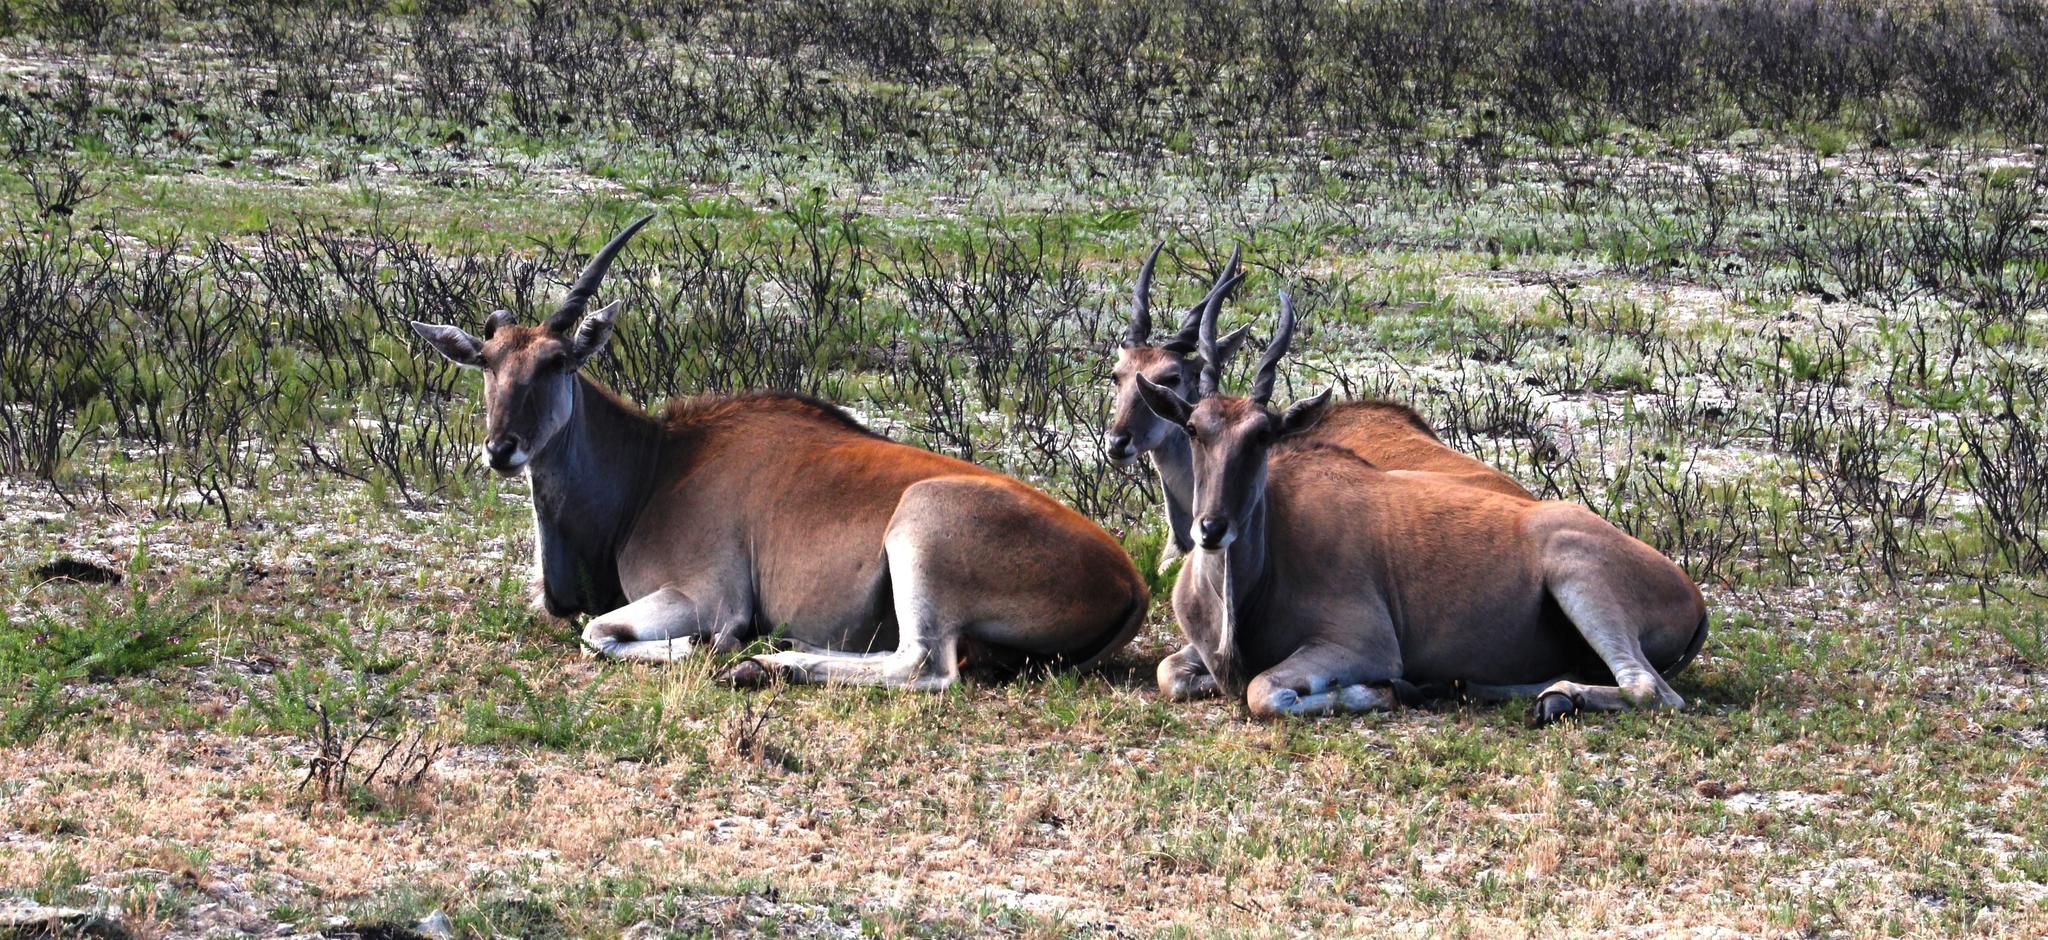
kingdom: Animalia
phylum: Chordata
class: Mammalia
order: Artiodactyla
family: Bovidae
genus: Taurotragus
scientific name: Taurotragus oryx
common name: Common eland
